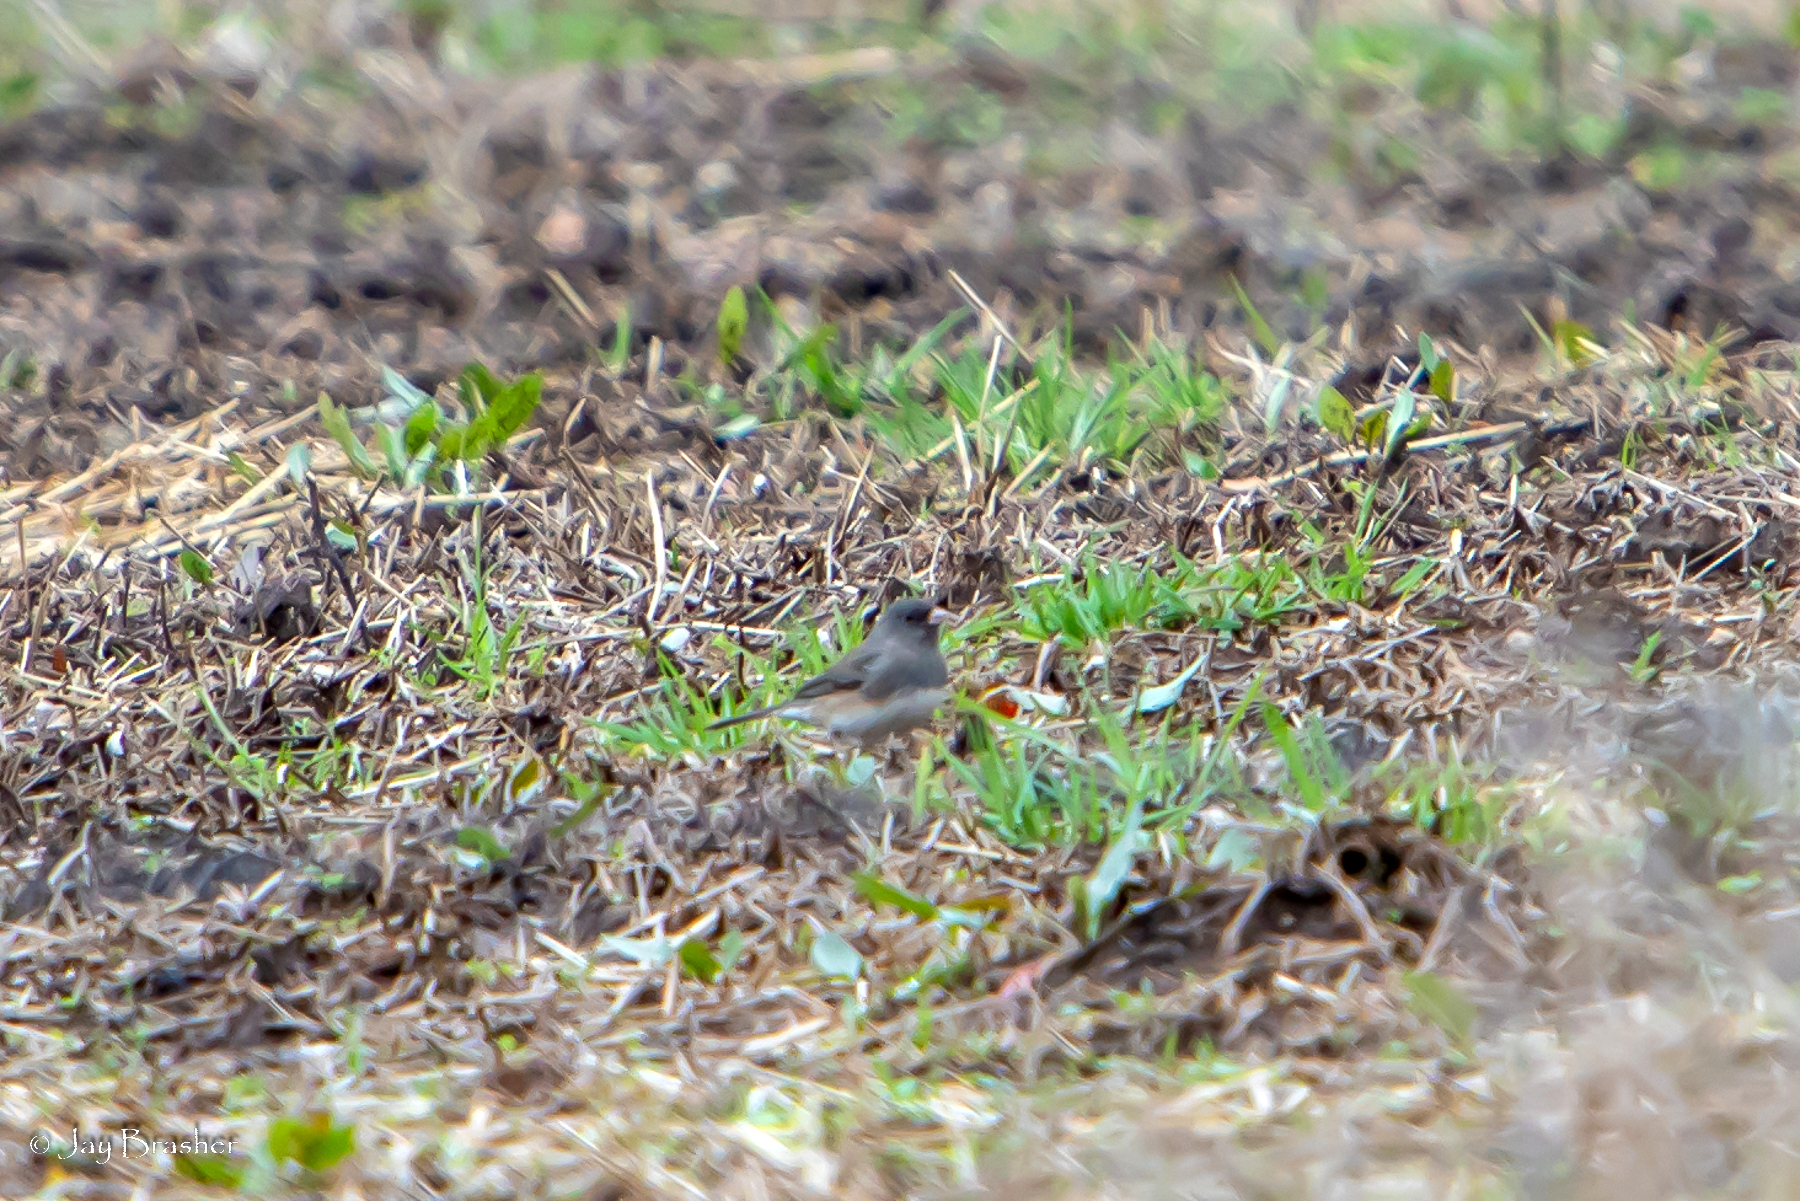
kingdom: Animalia
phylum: Chordata
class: Aves
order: Passeriformes
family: Passerellidae
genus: Junco
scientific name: Junco hyemalis
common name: Dark-eyed junco
